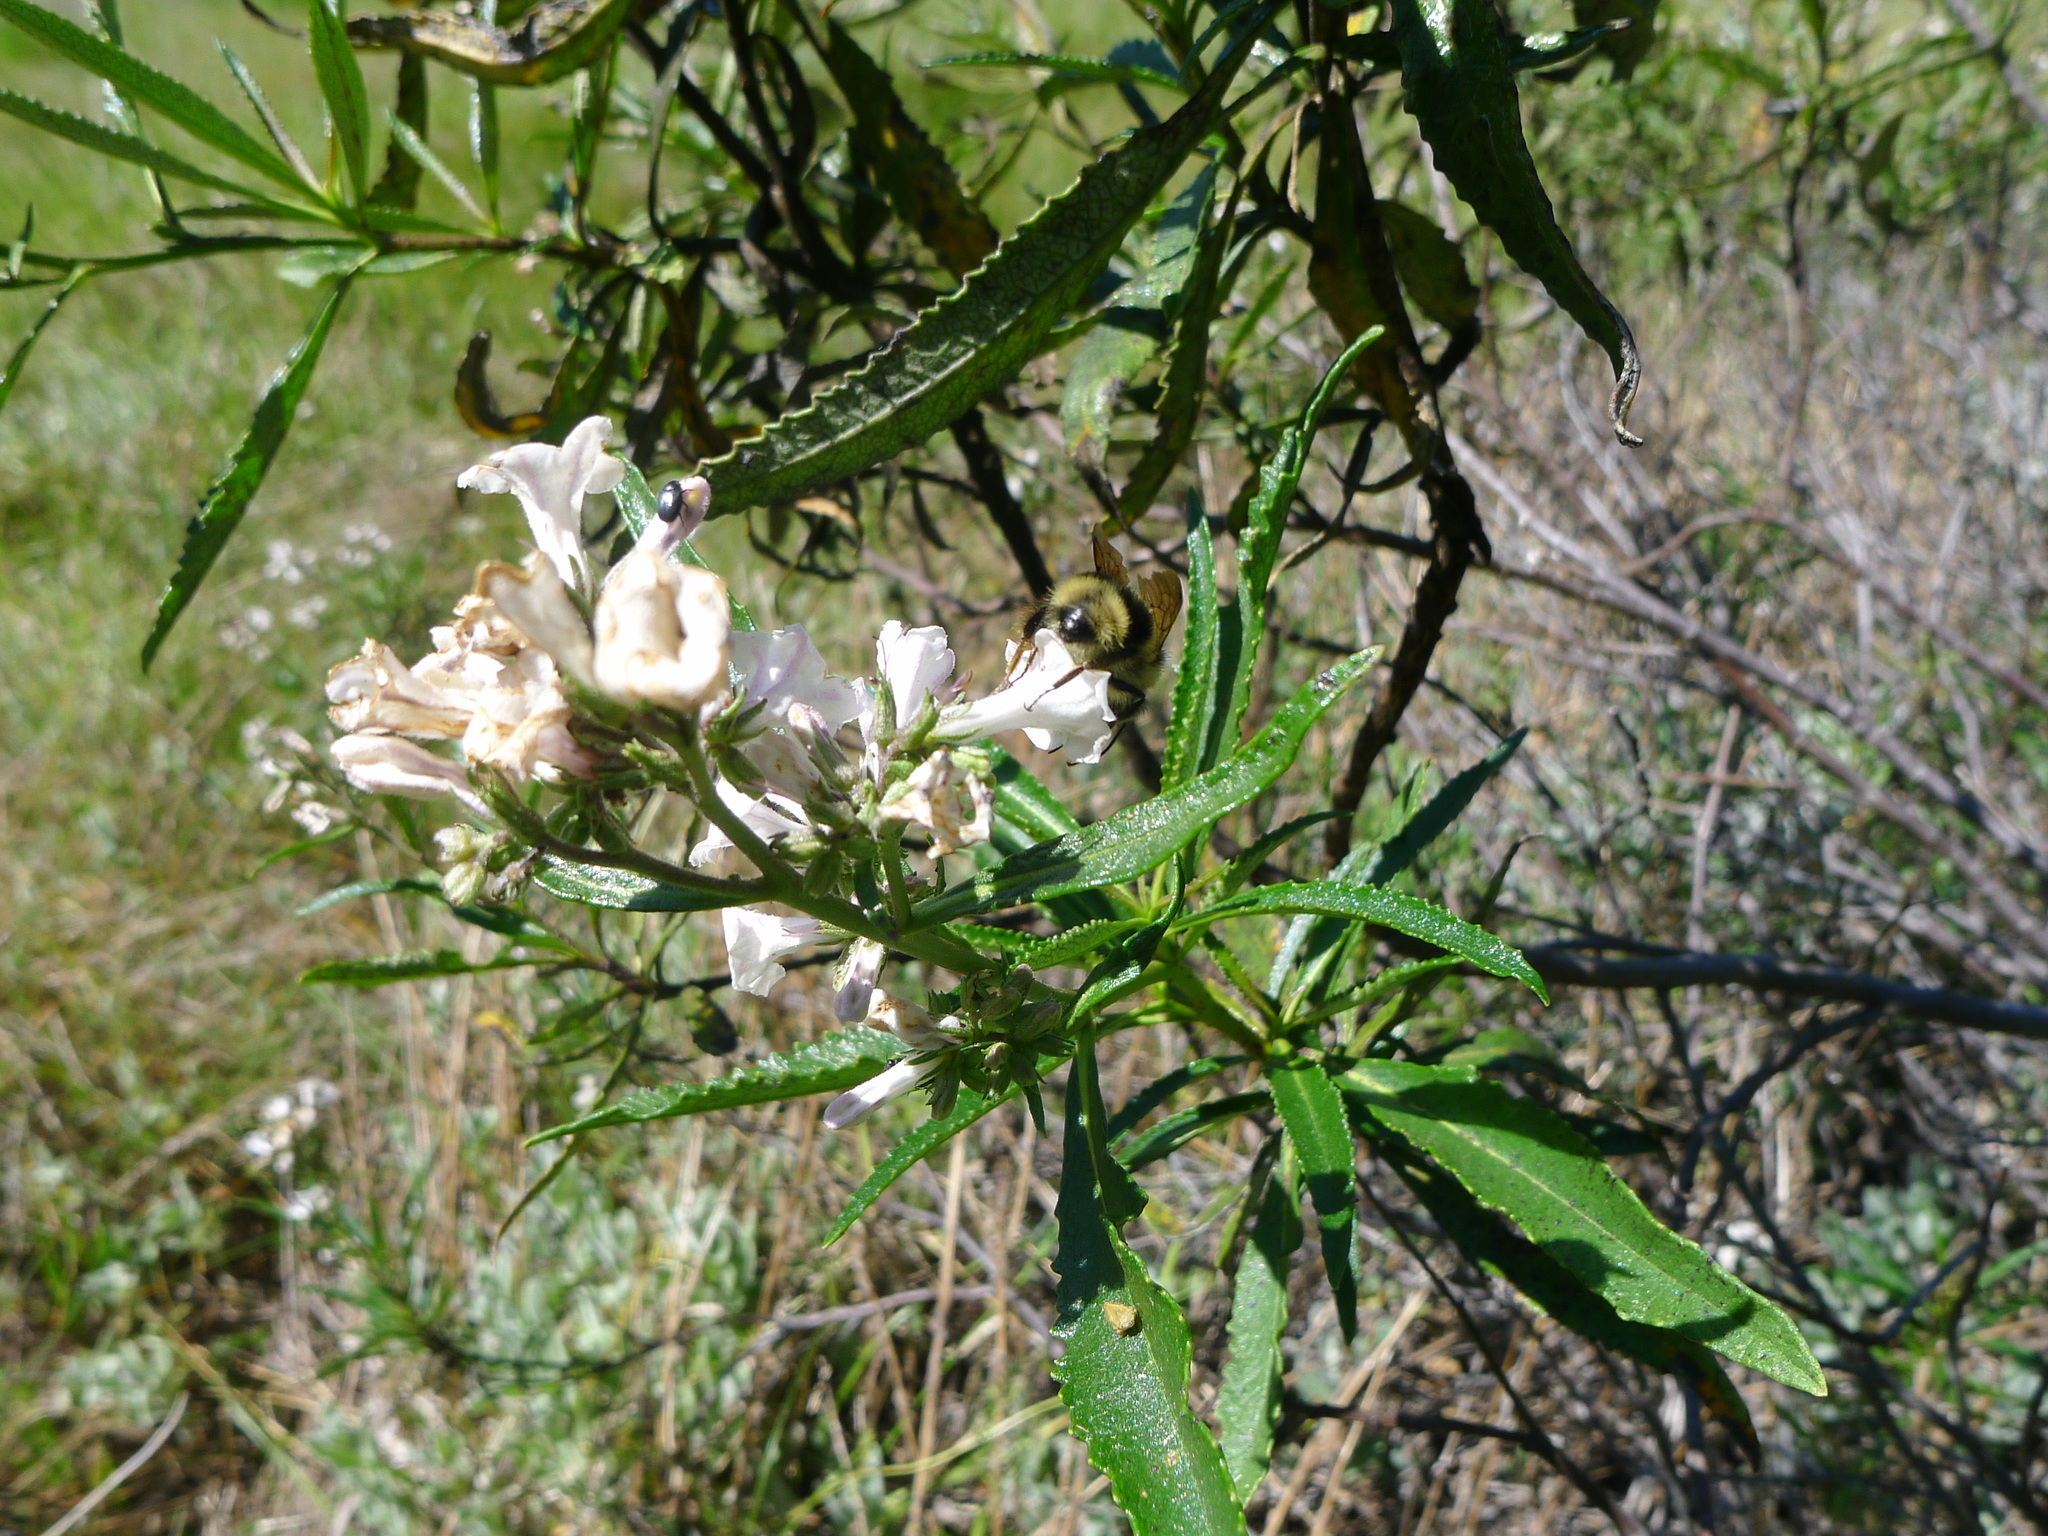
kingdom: Plantae
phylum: Tracheophyta
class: Magnoliopsida
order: Boraginales
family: Namaceae
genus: Eriodictyon
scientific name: Eriodictyon californicum
